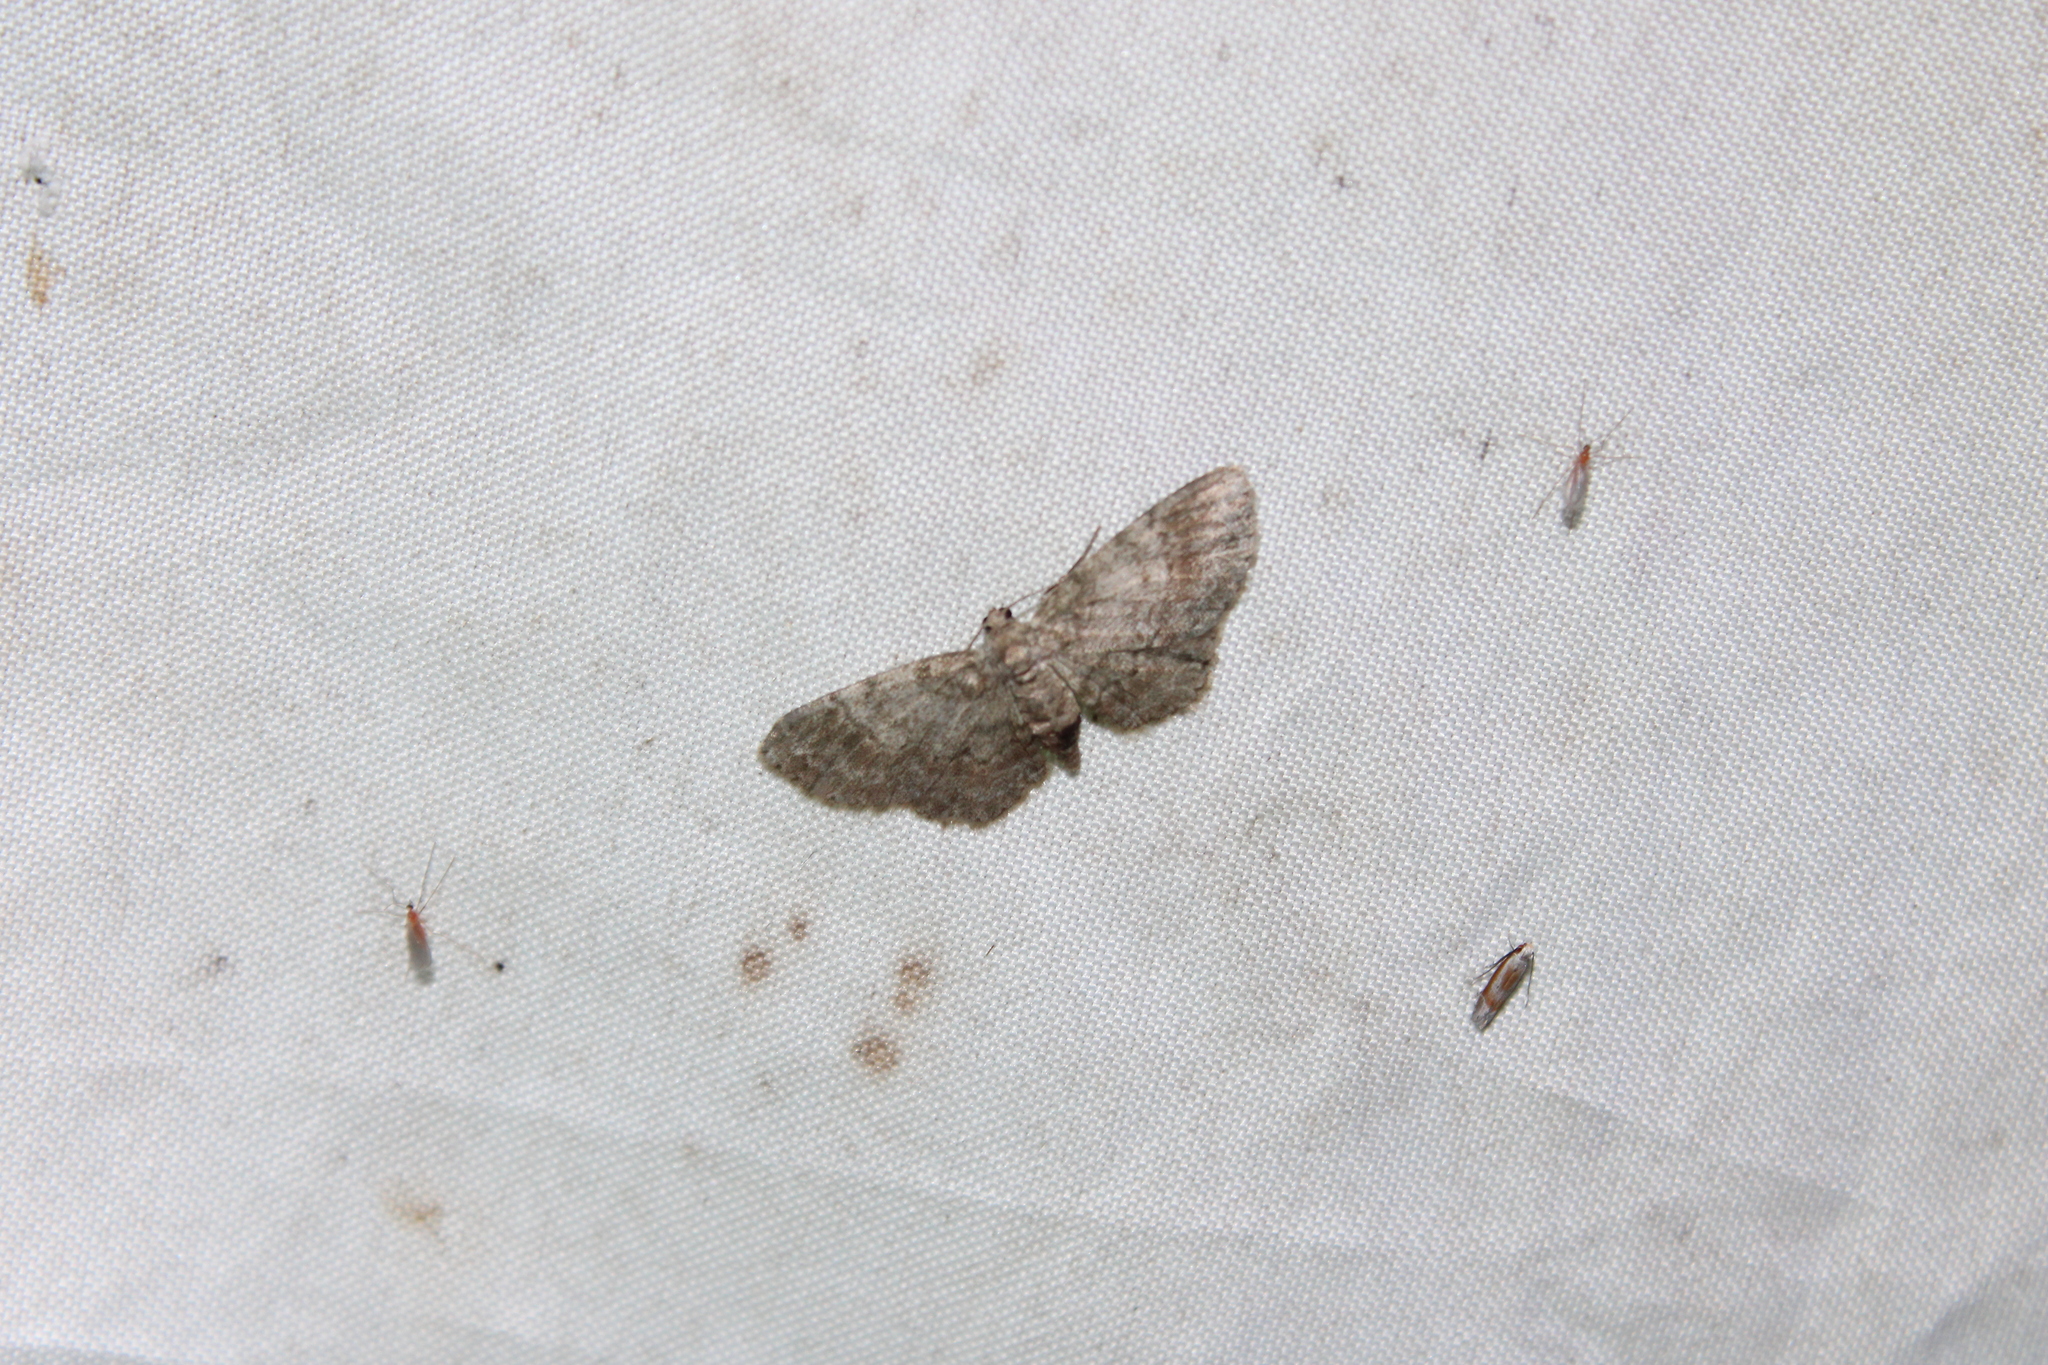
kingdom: Animalia
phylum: Arthropoda
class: Insecta
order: Lepidoptera
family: Geometridae
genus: Glenoides
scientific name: Glenoides texanaria
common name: Texas gray
